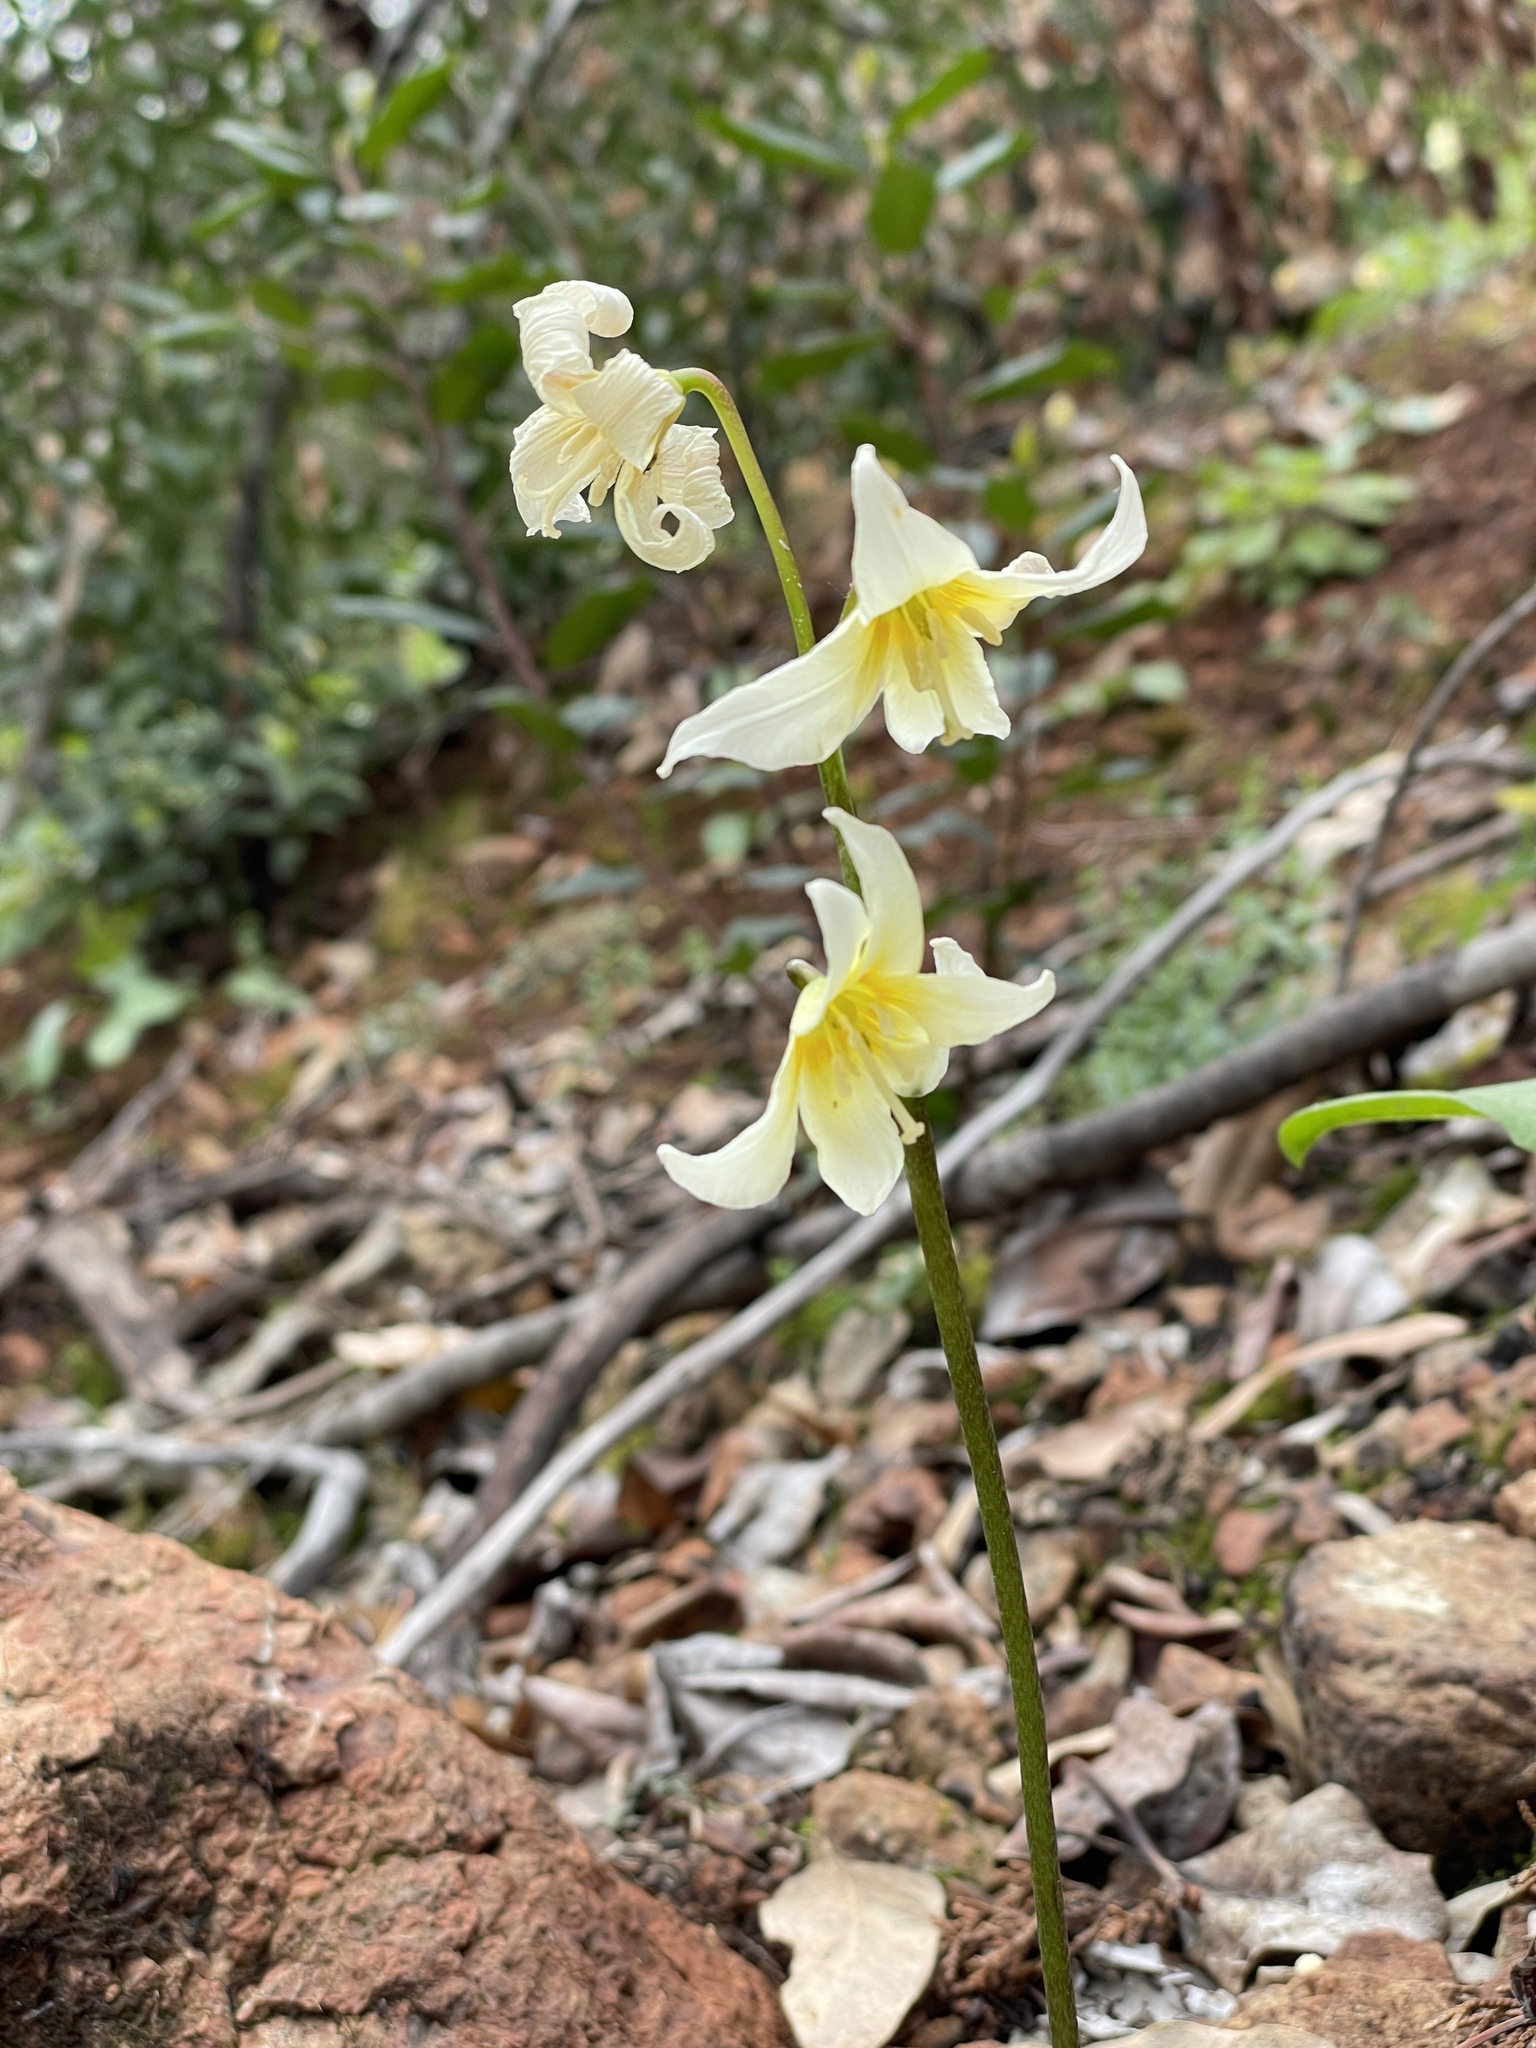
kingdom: Plantae
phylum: Tracheophyta
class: Liliopsida
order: Liliales
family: Liliaceae
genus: Erythronium
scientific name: Erythronium californicum
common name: Fawn-lily
